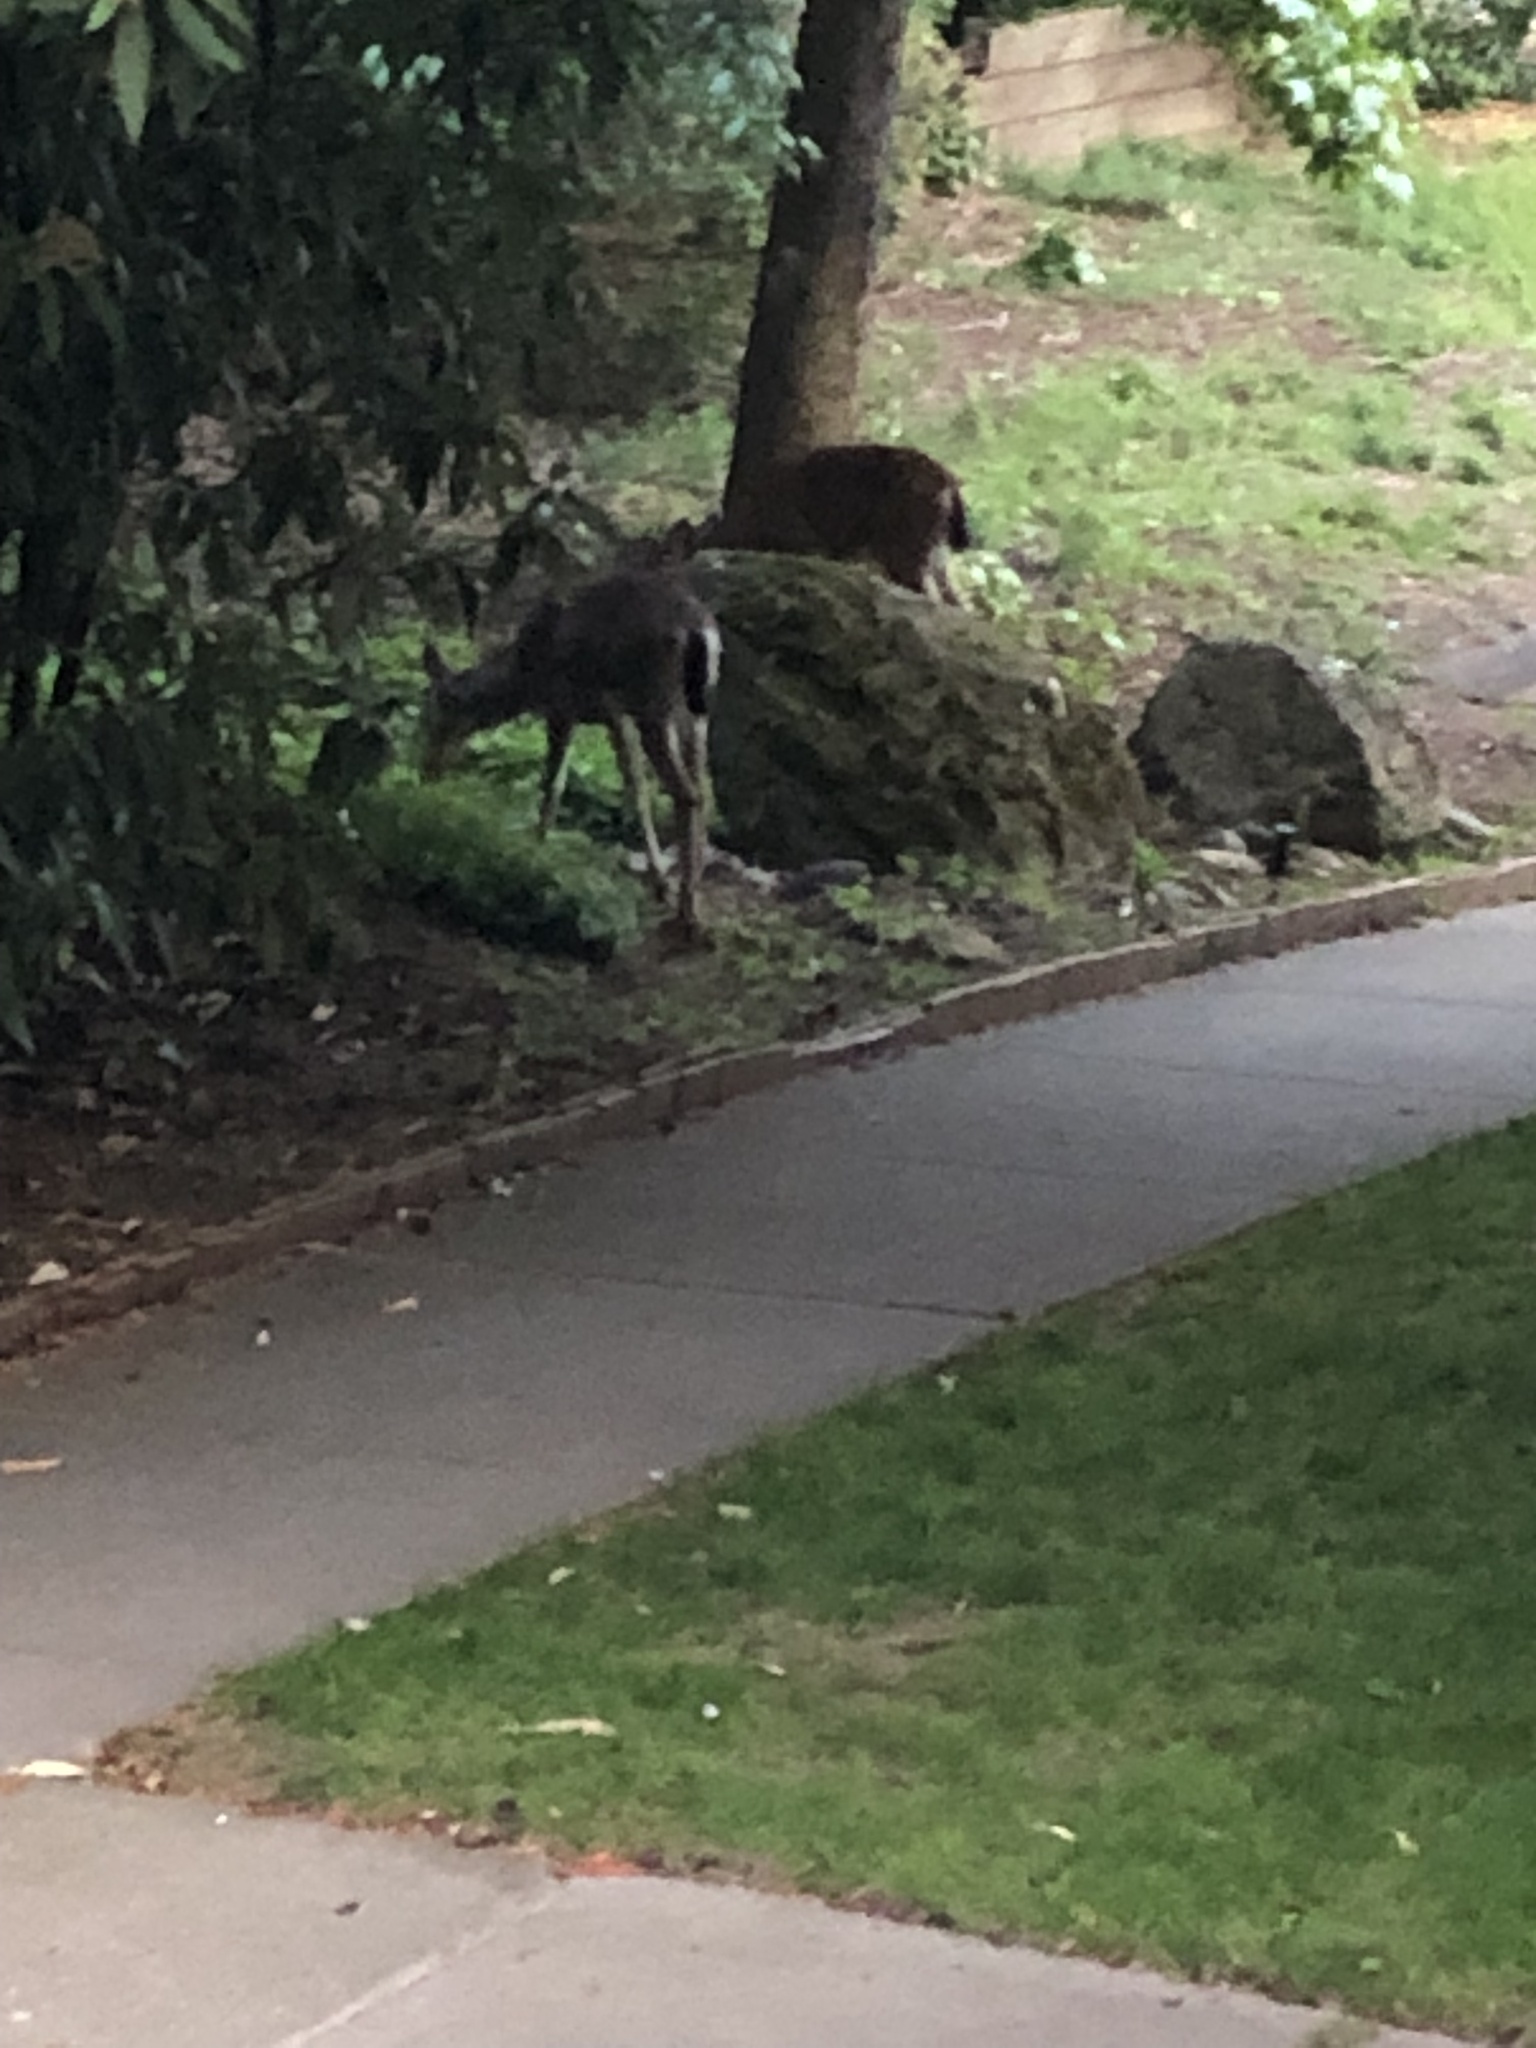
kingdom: Animalia
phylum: Chordata
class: Mammalia
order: Artiodactyla
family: Cervidae
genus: Odocoileus
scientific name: Odocoileus hemionus
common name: Mule deer
